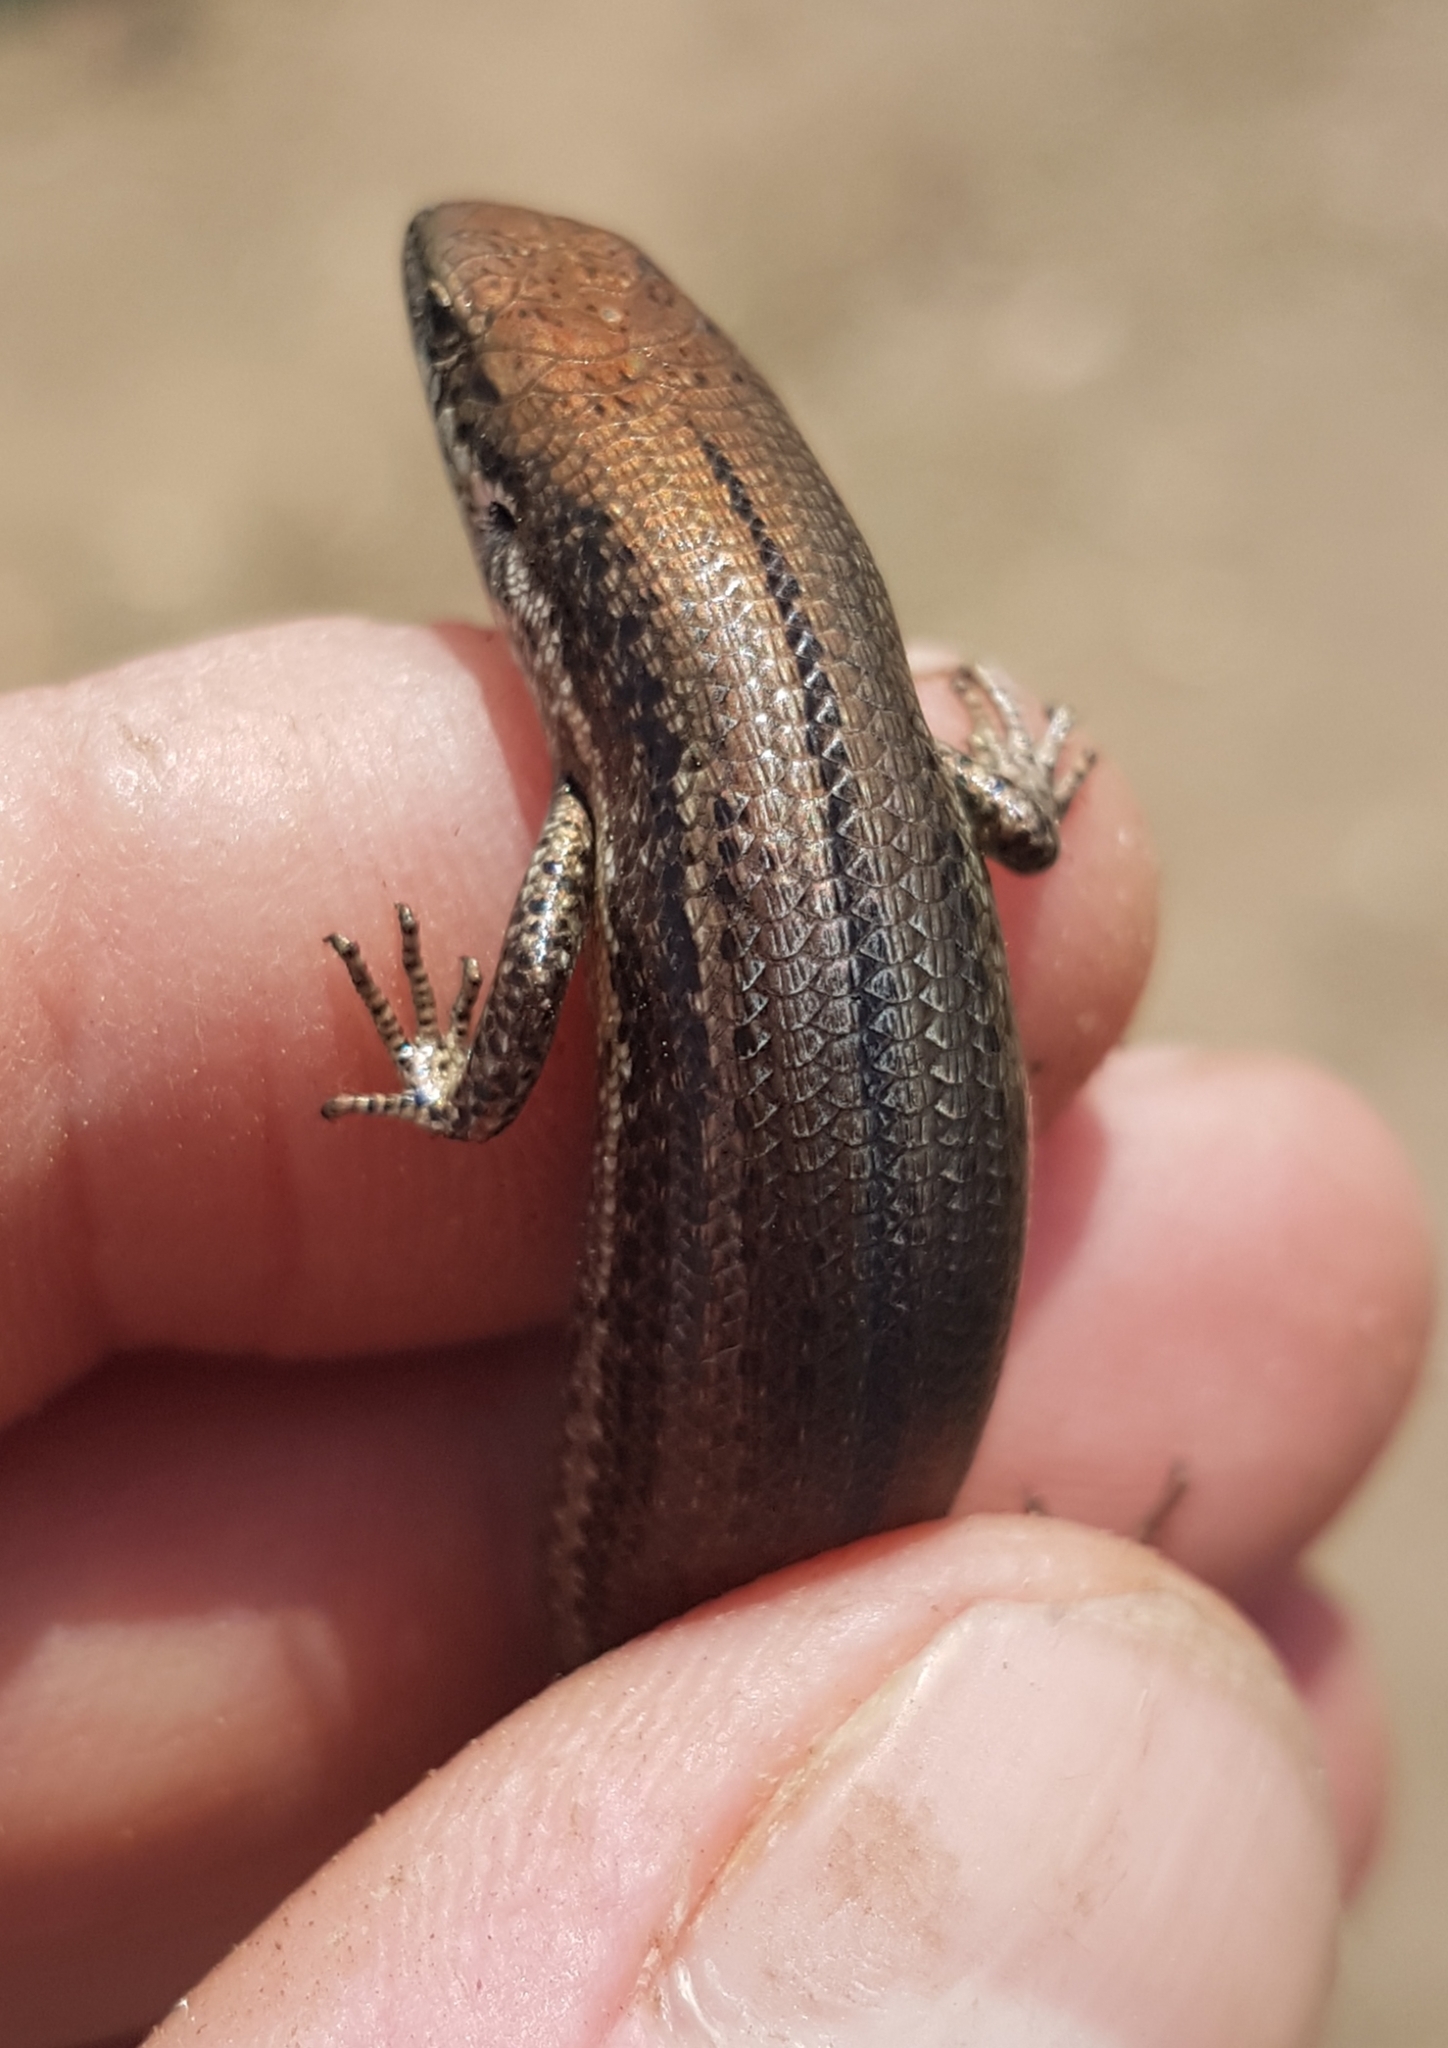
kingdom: Animalia
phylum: Chordata
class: Squamata
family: Scincidae
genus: Pseudemoia
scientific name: Pseudemoia entrecasteauxii
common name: Entrecasteaux's skink
